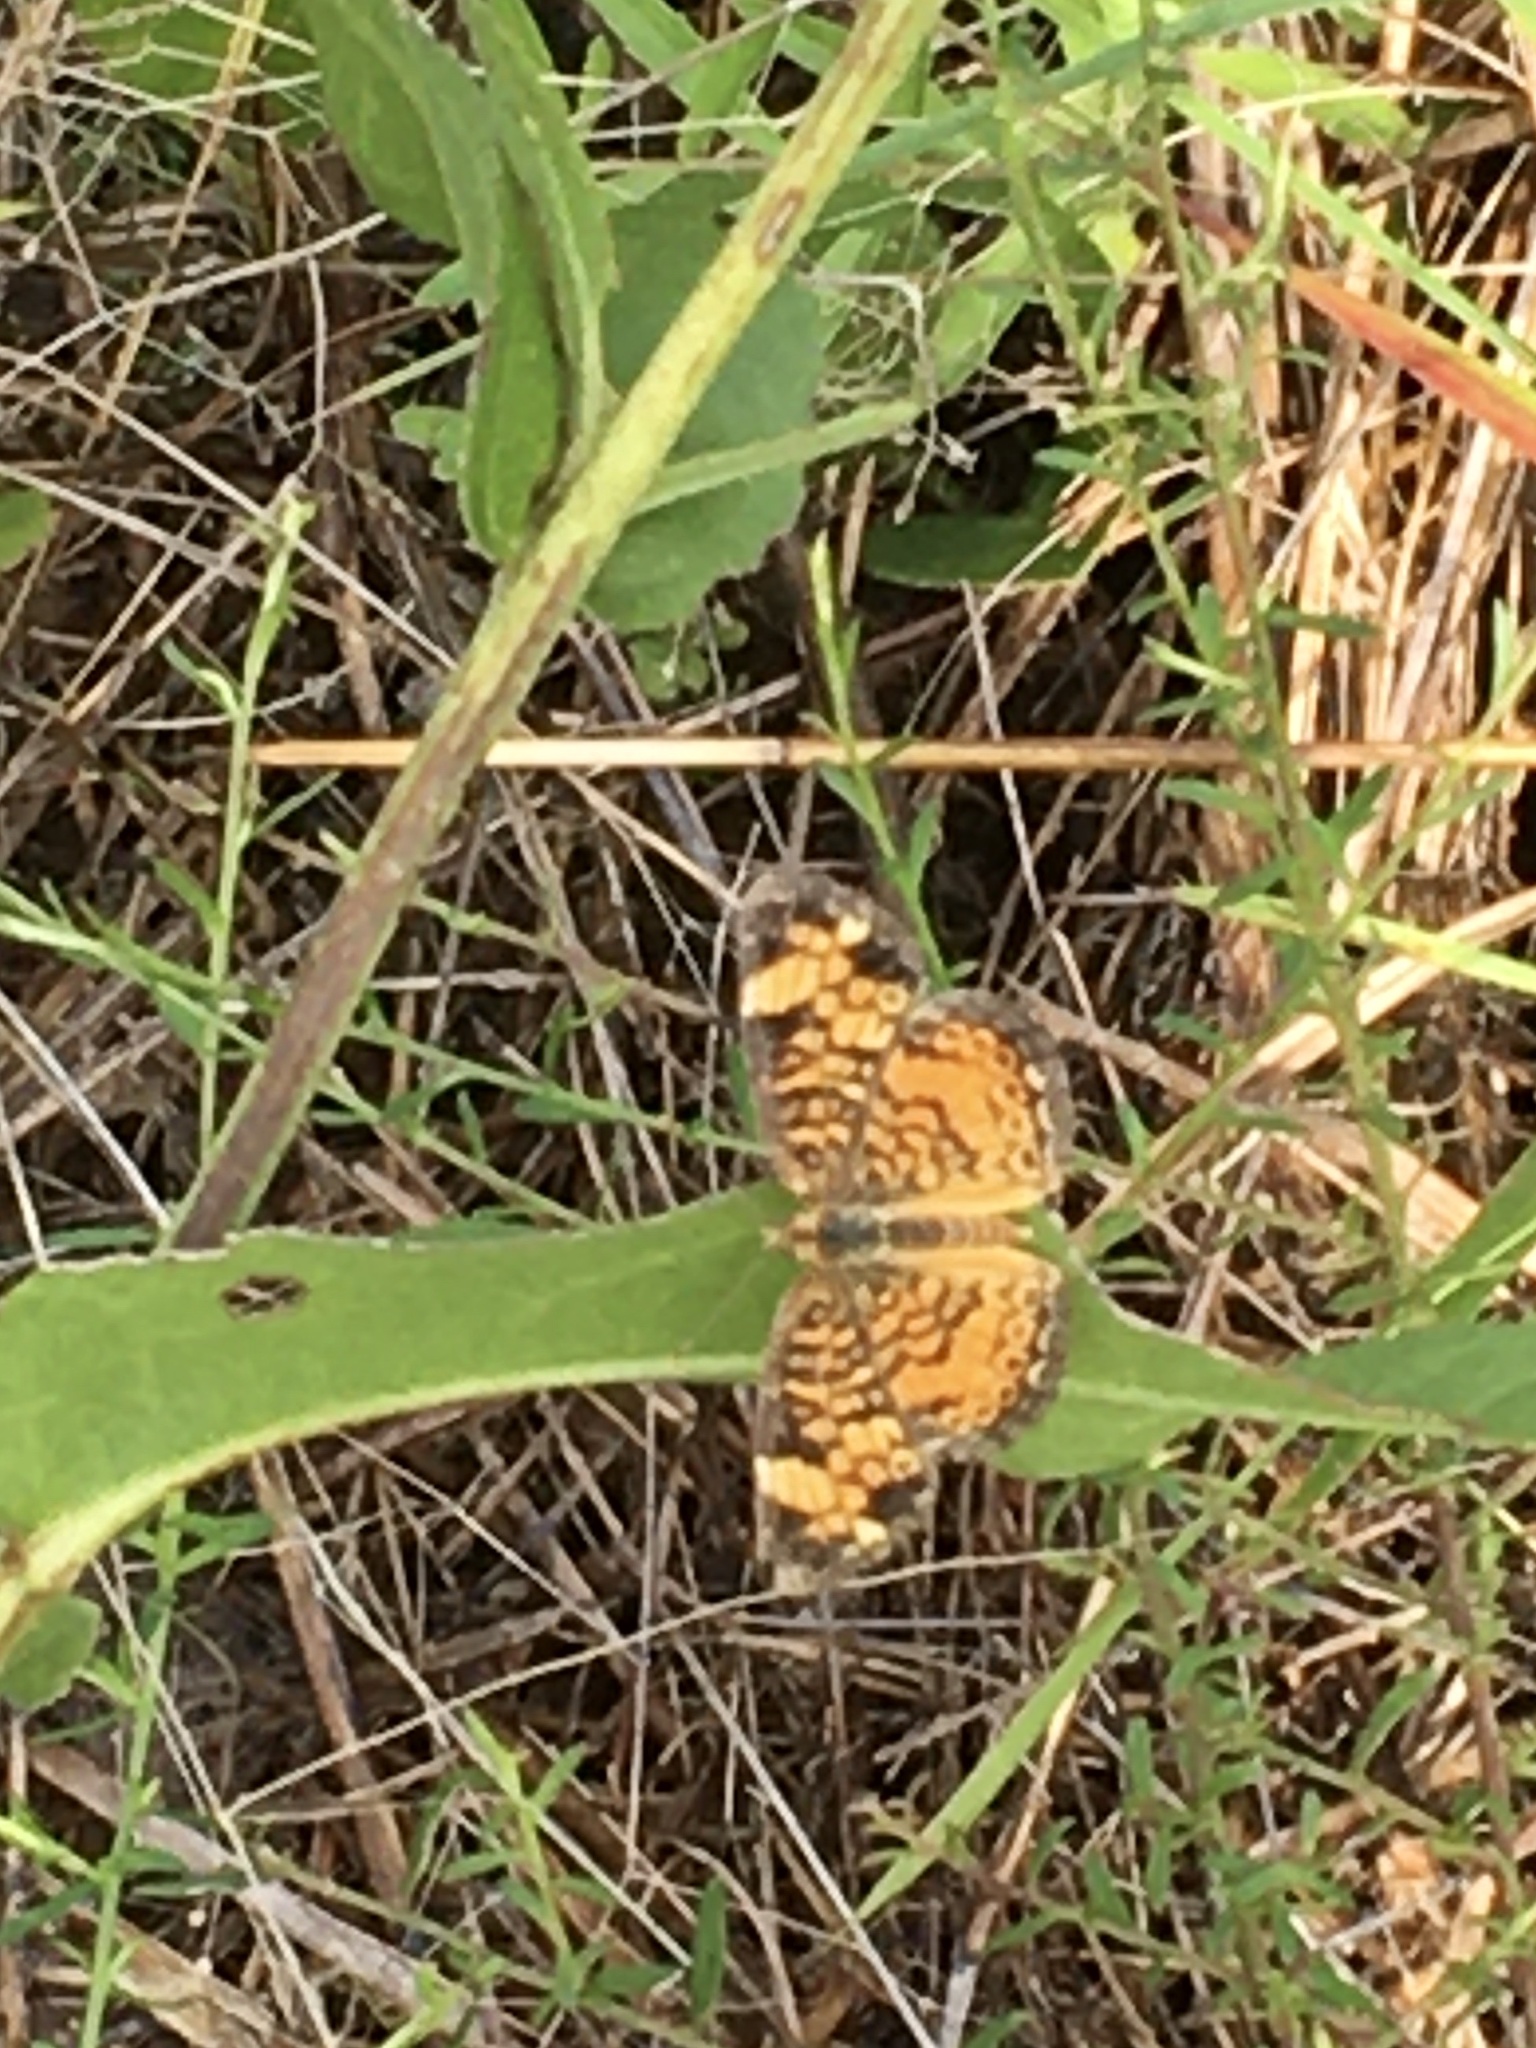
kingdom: Animalia
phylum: Arthropoda
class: Insecta
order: Lepidoptera
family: Nymphalidae
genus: Phyciodes
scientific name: Phyciodes tharos
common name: Pearl crescent
